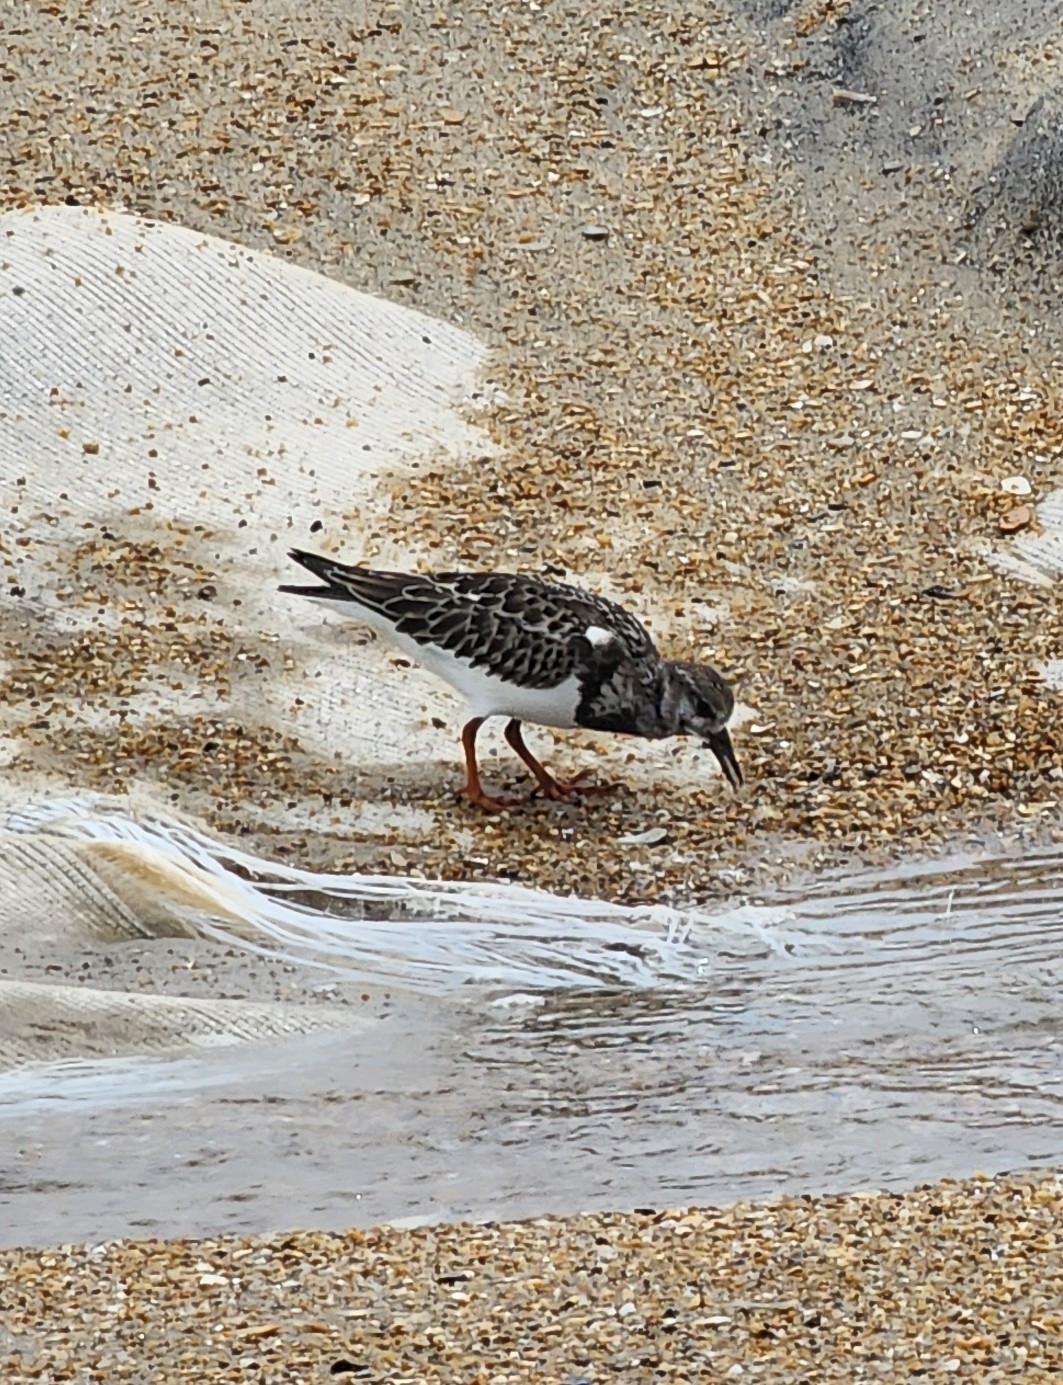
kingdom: Animalia
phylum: Chordata
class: Aves
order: Charadriiformes
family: Scolopacidae
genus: Arenaria
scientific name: Arenaria interpres
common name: Ruddy turnstone
